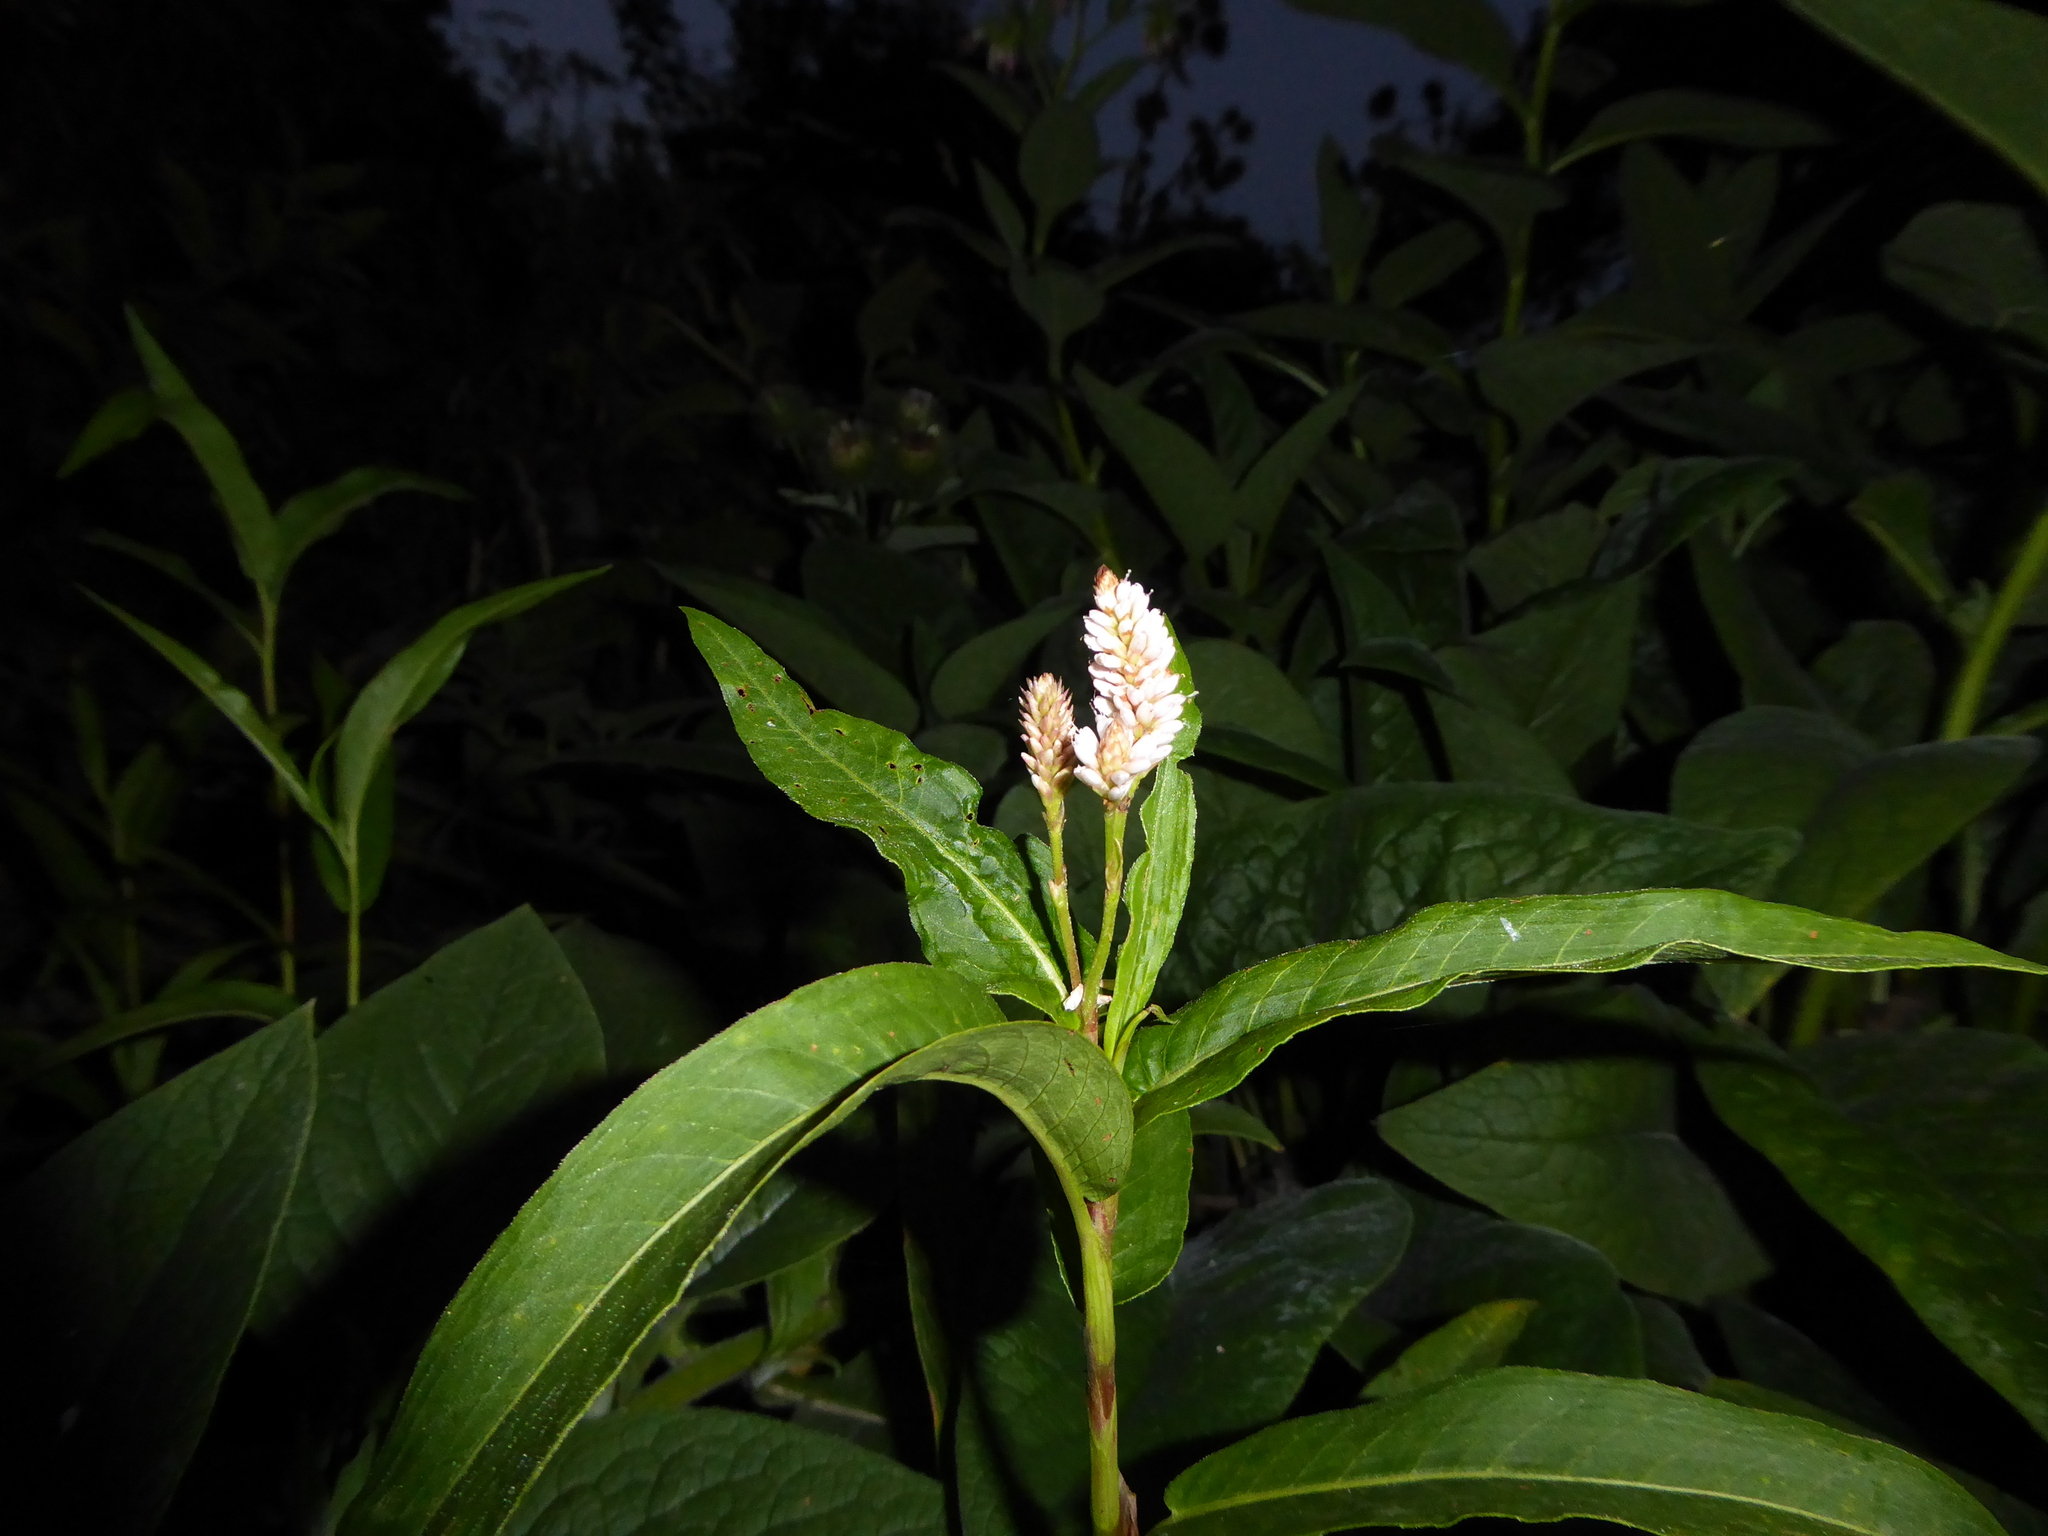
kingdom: Plantae
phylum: Tracheophyta
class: Magnoliopsida
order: Caryophyllales
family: Polygonaceae
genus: Persicaria
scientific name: Persicaria amphibia
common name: Amphibious bistort
